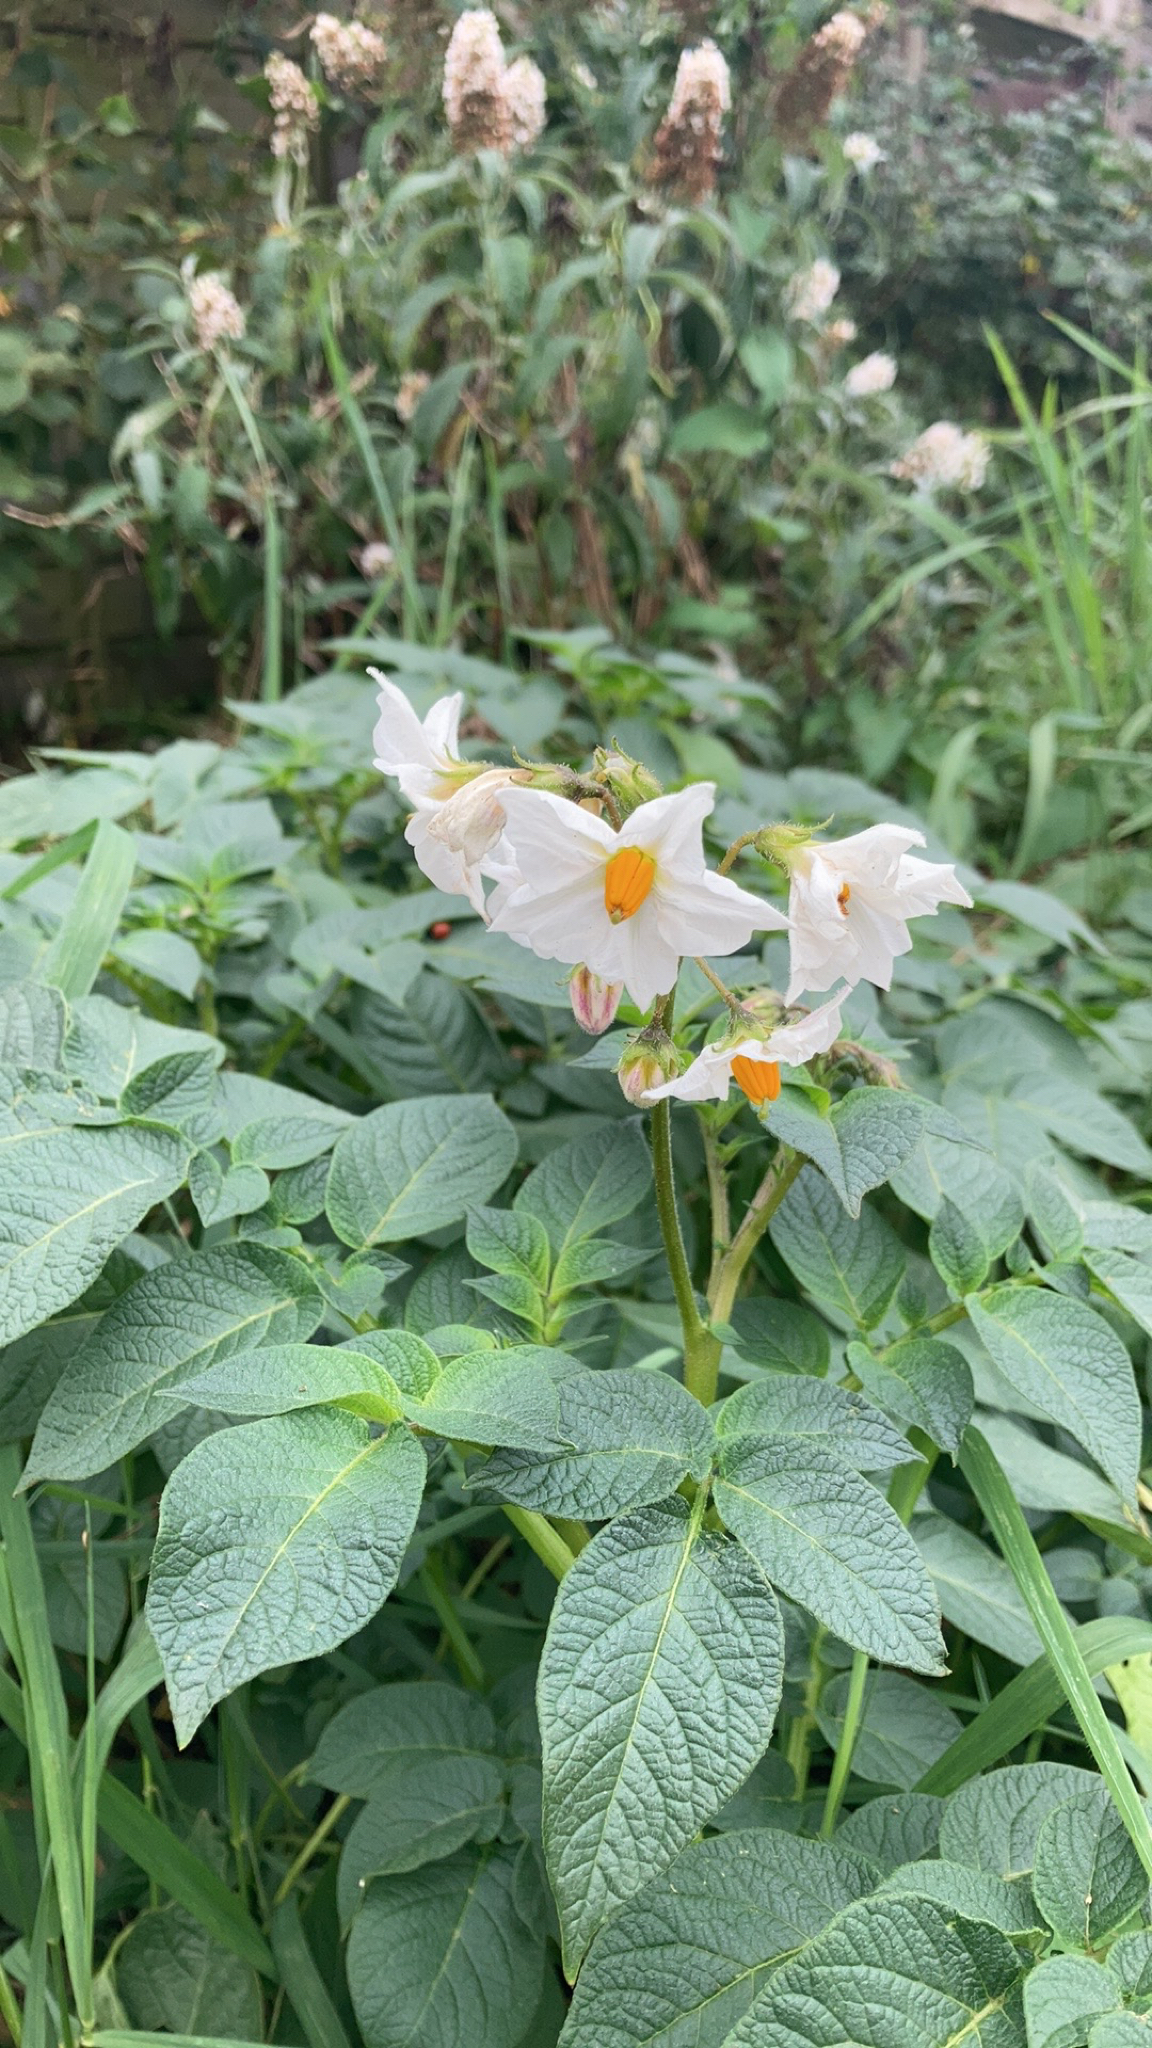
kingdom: Plantae
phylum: Tracheophyta
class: Magnoliopsida
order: Solanales
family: Solanaceae
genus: Solanum
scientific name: Solanum tuberosum
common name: Potato
